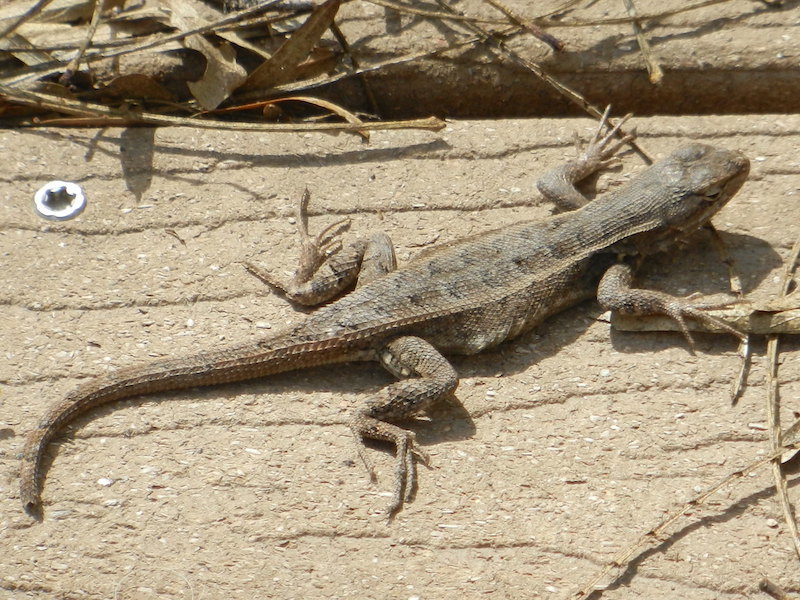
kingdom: Animalia
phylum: Chordata
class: Squamata
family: Phrynosomatidae
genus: Sceloporus
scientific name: Sceloporus variabilis
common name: Rosebelly lizard
